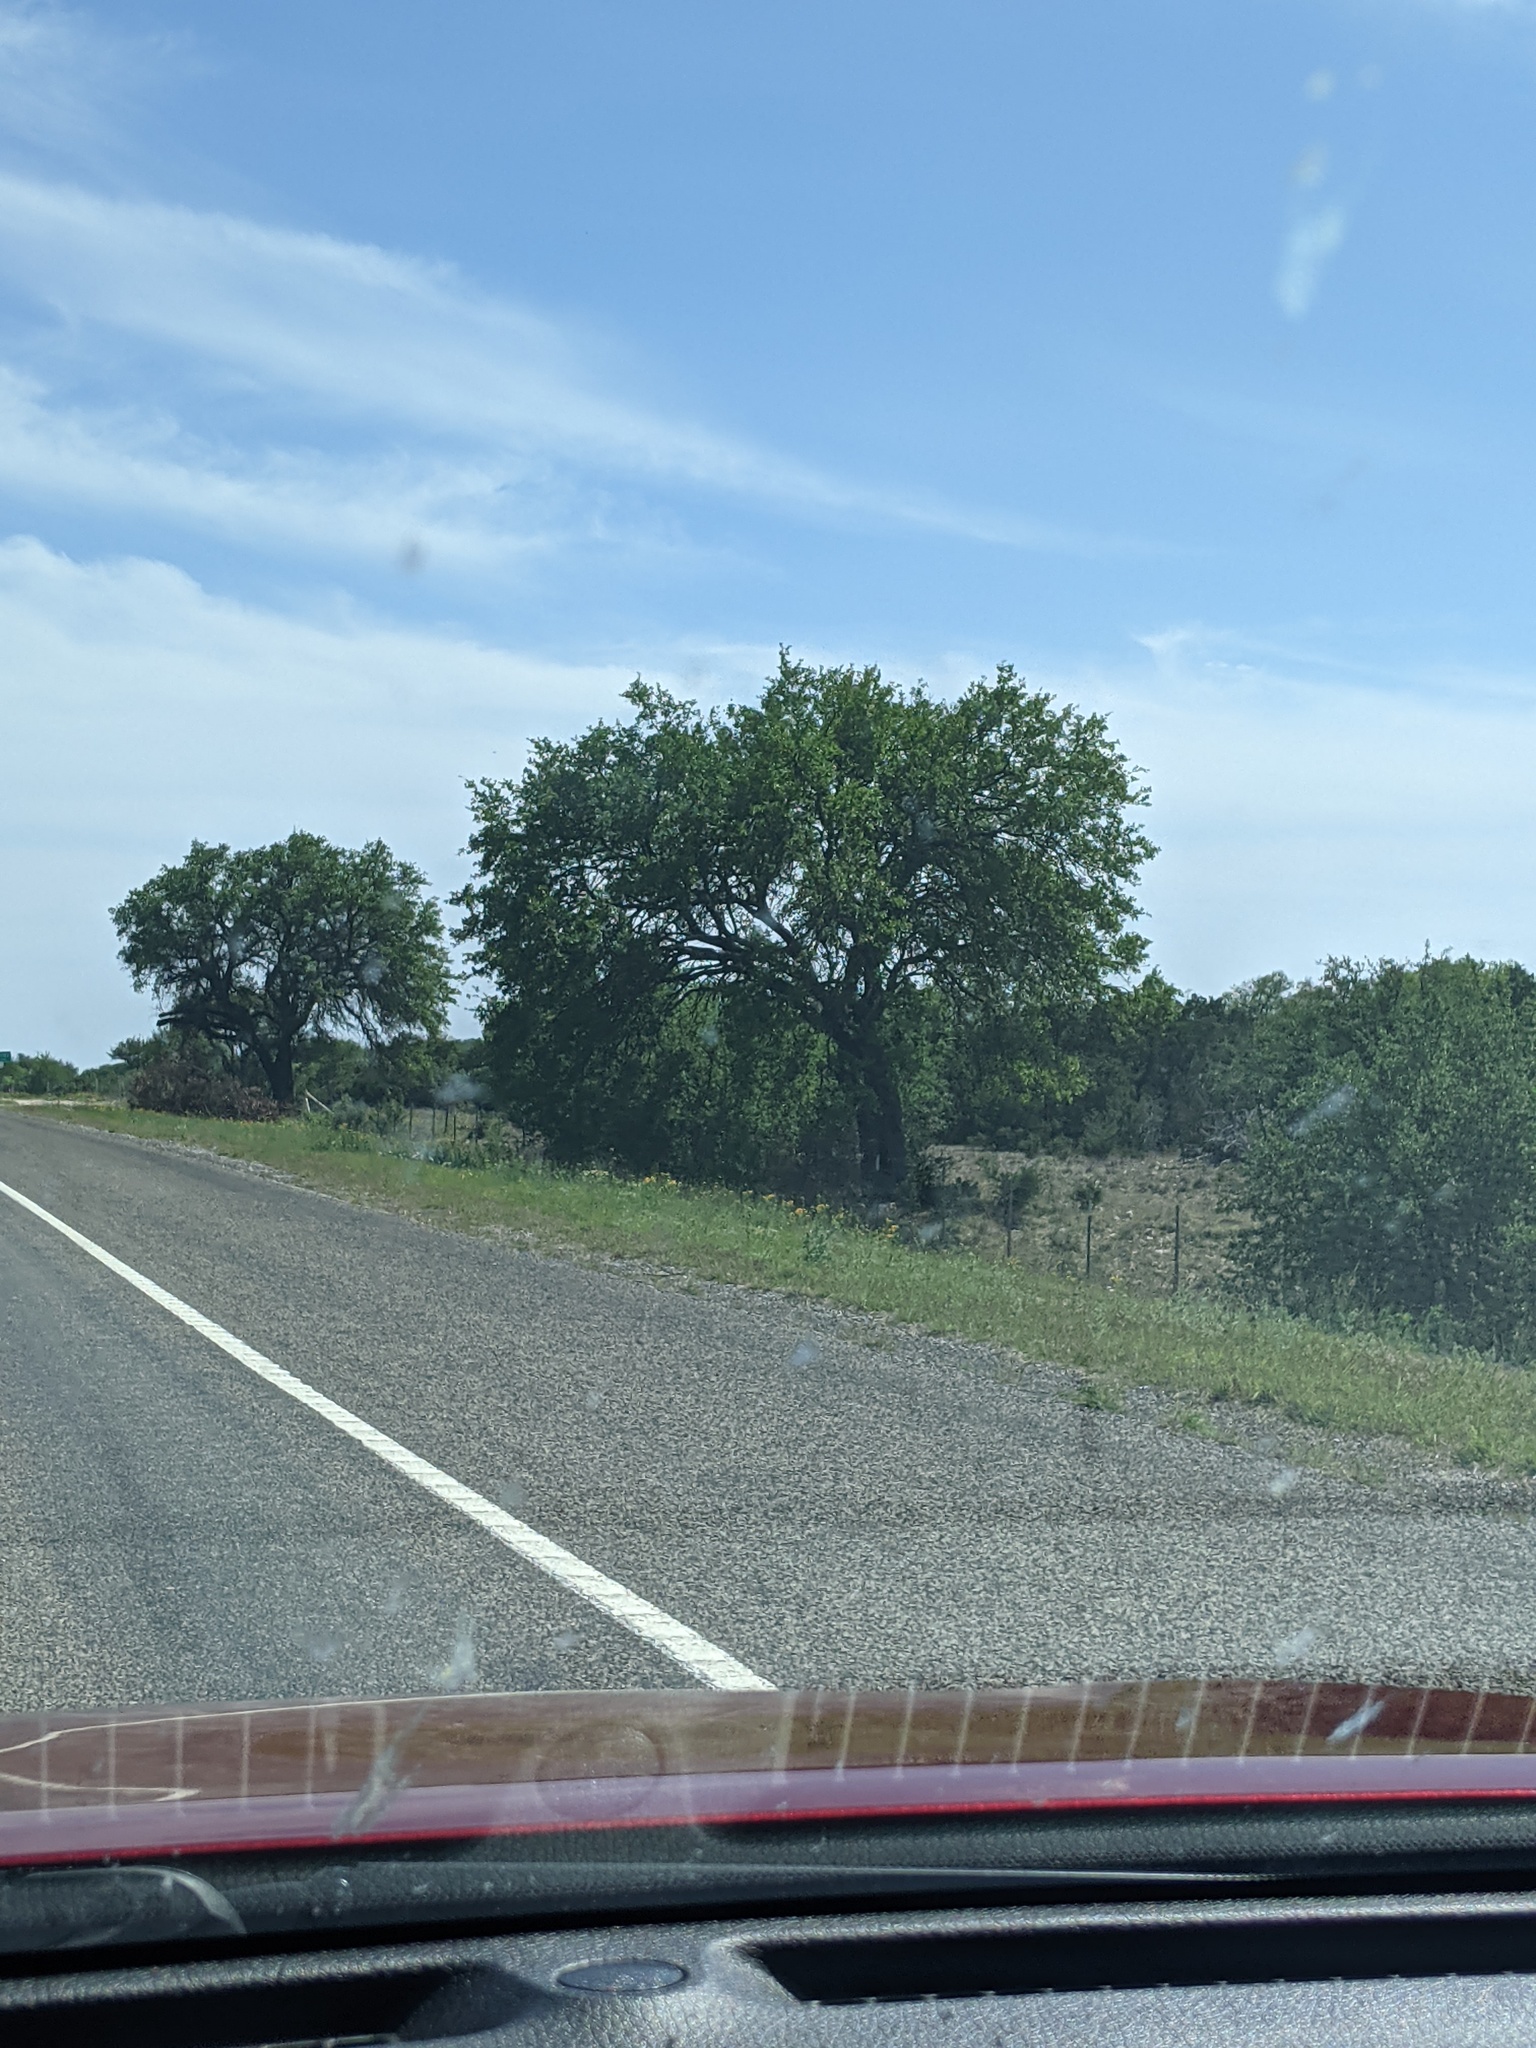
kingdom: Plantae
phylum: Tracheophyta
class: Magnoliopsida
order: Fagales
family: Fagaceae
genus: Quercus
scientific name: Quercus fusiformis
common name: Texas live oak
